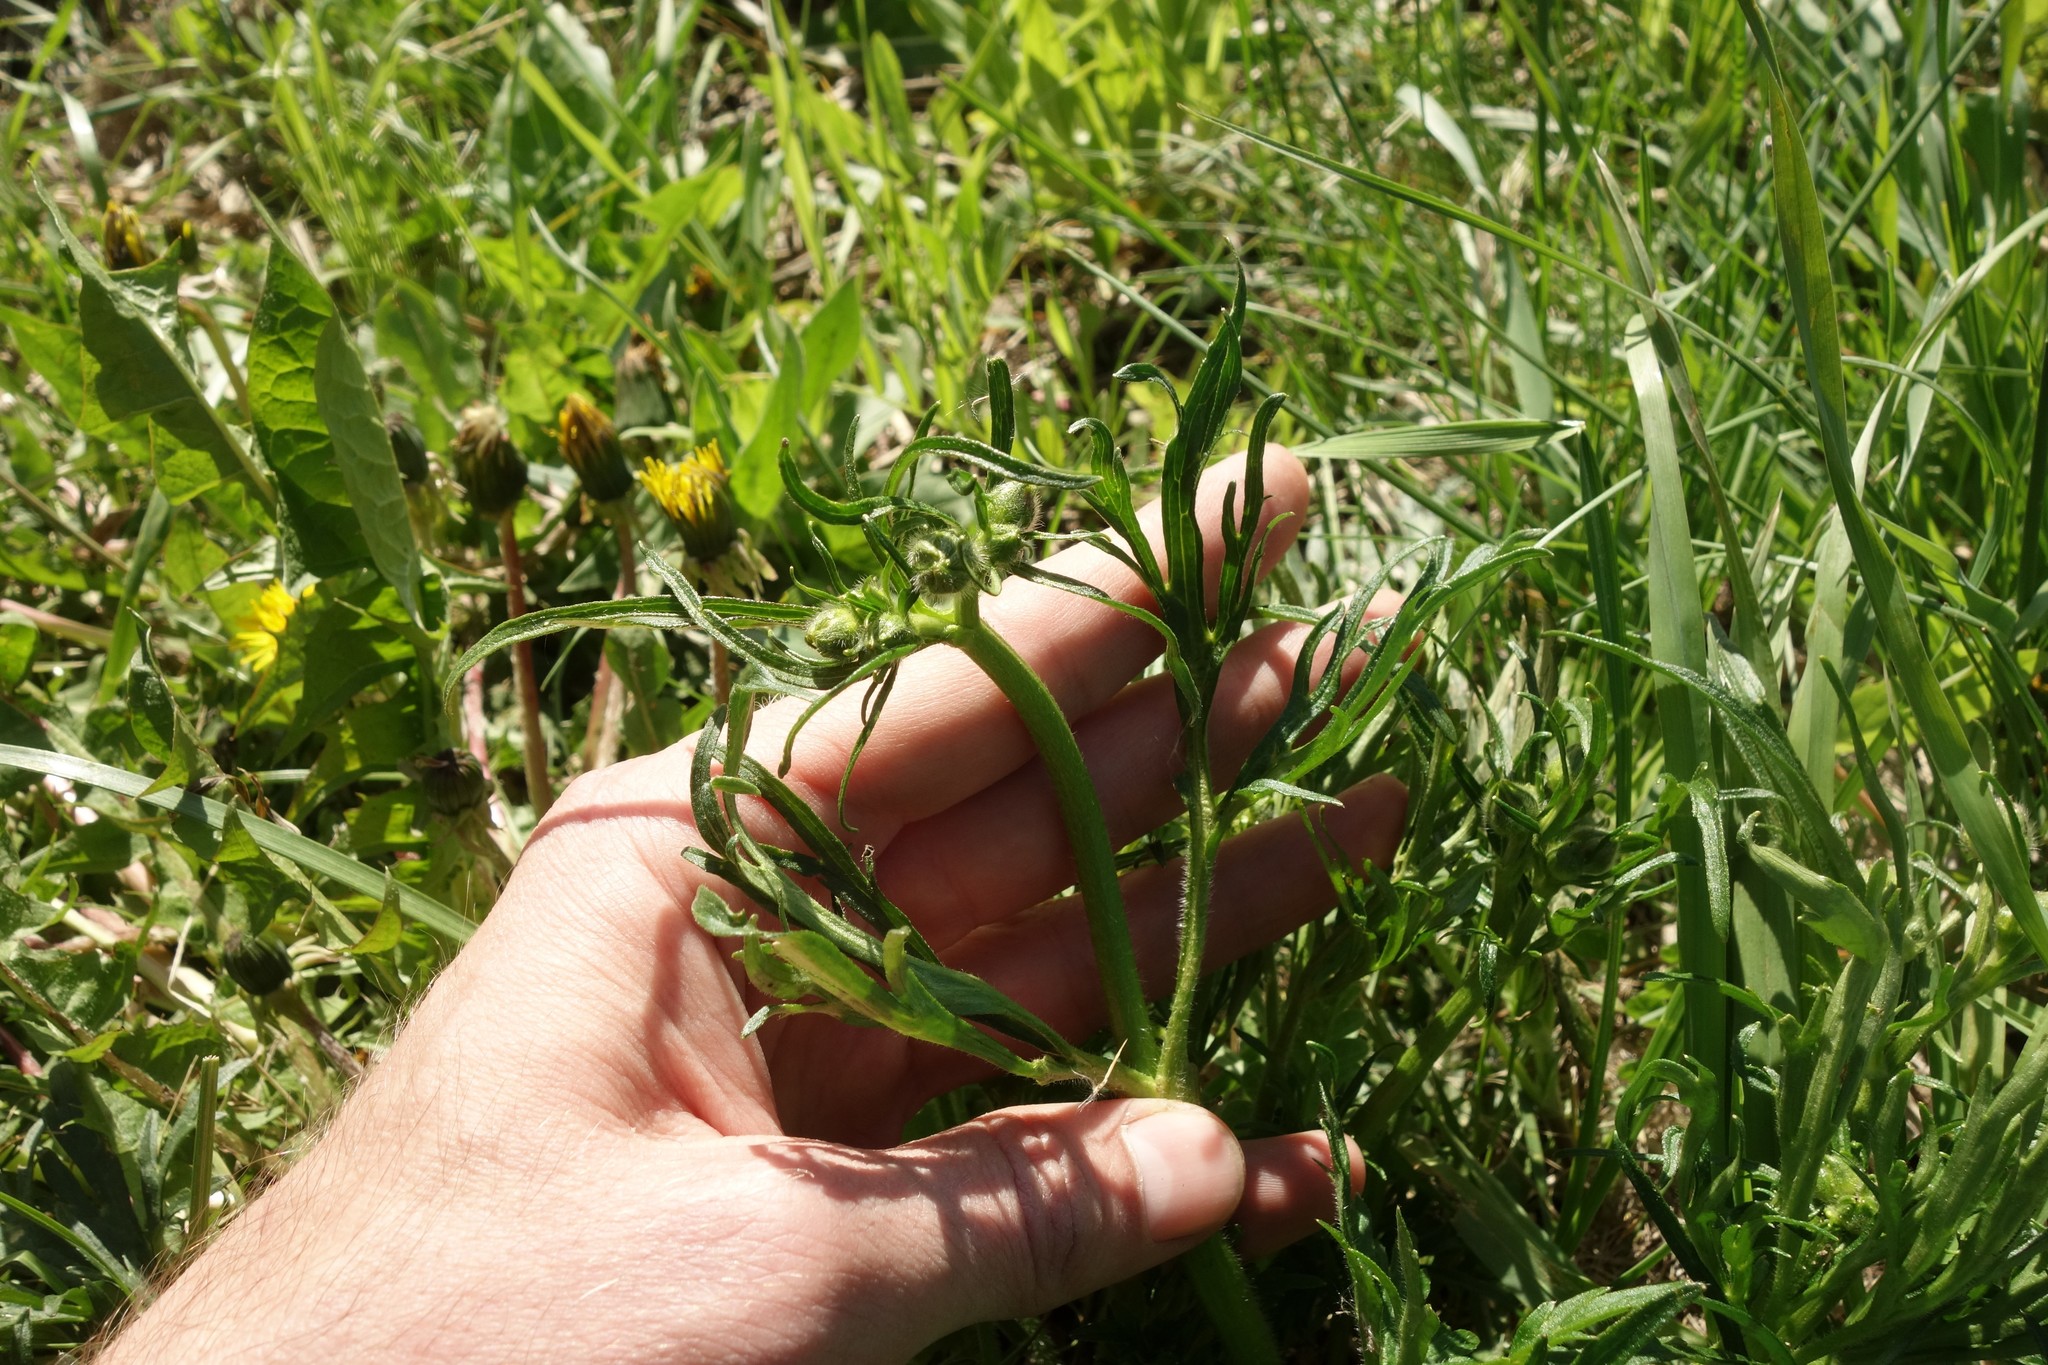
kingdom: Plantae
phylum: Tracheophyta
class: Magnoliopsida
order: Ranunculales
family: Ranunculaceae
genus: Ranunculus
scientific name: Ranunculus polyanthemos
